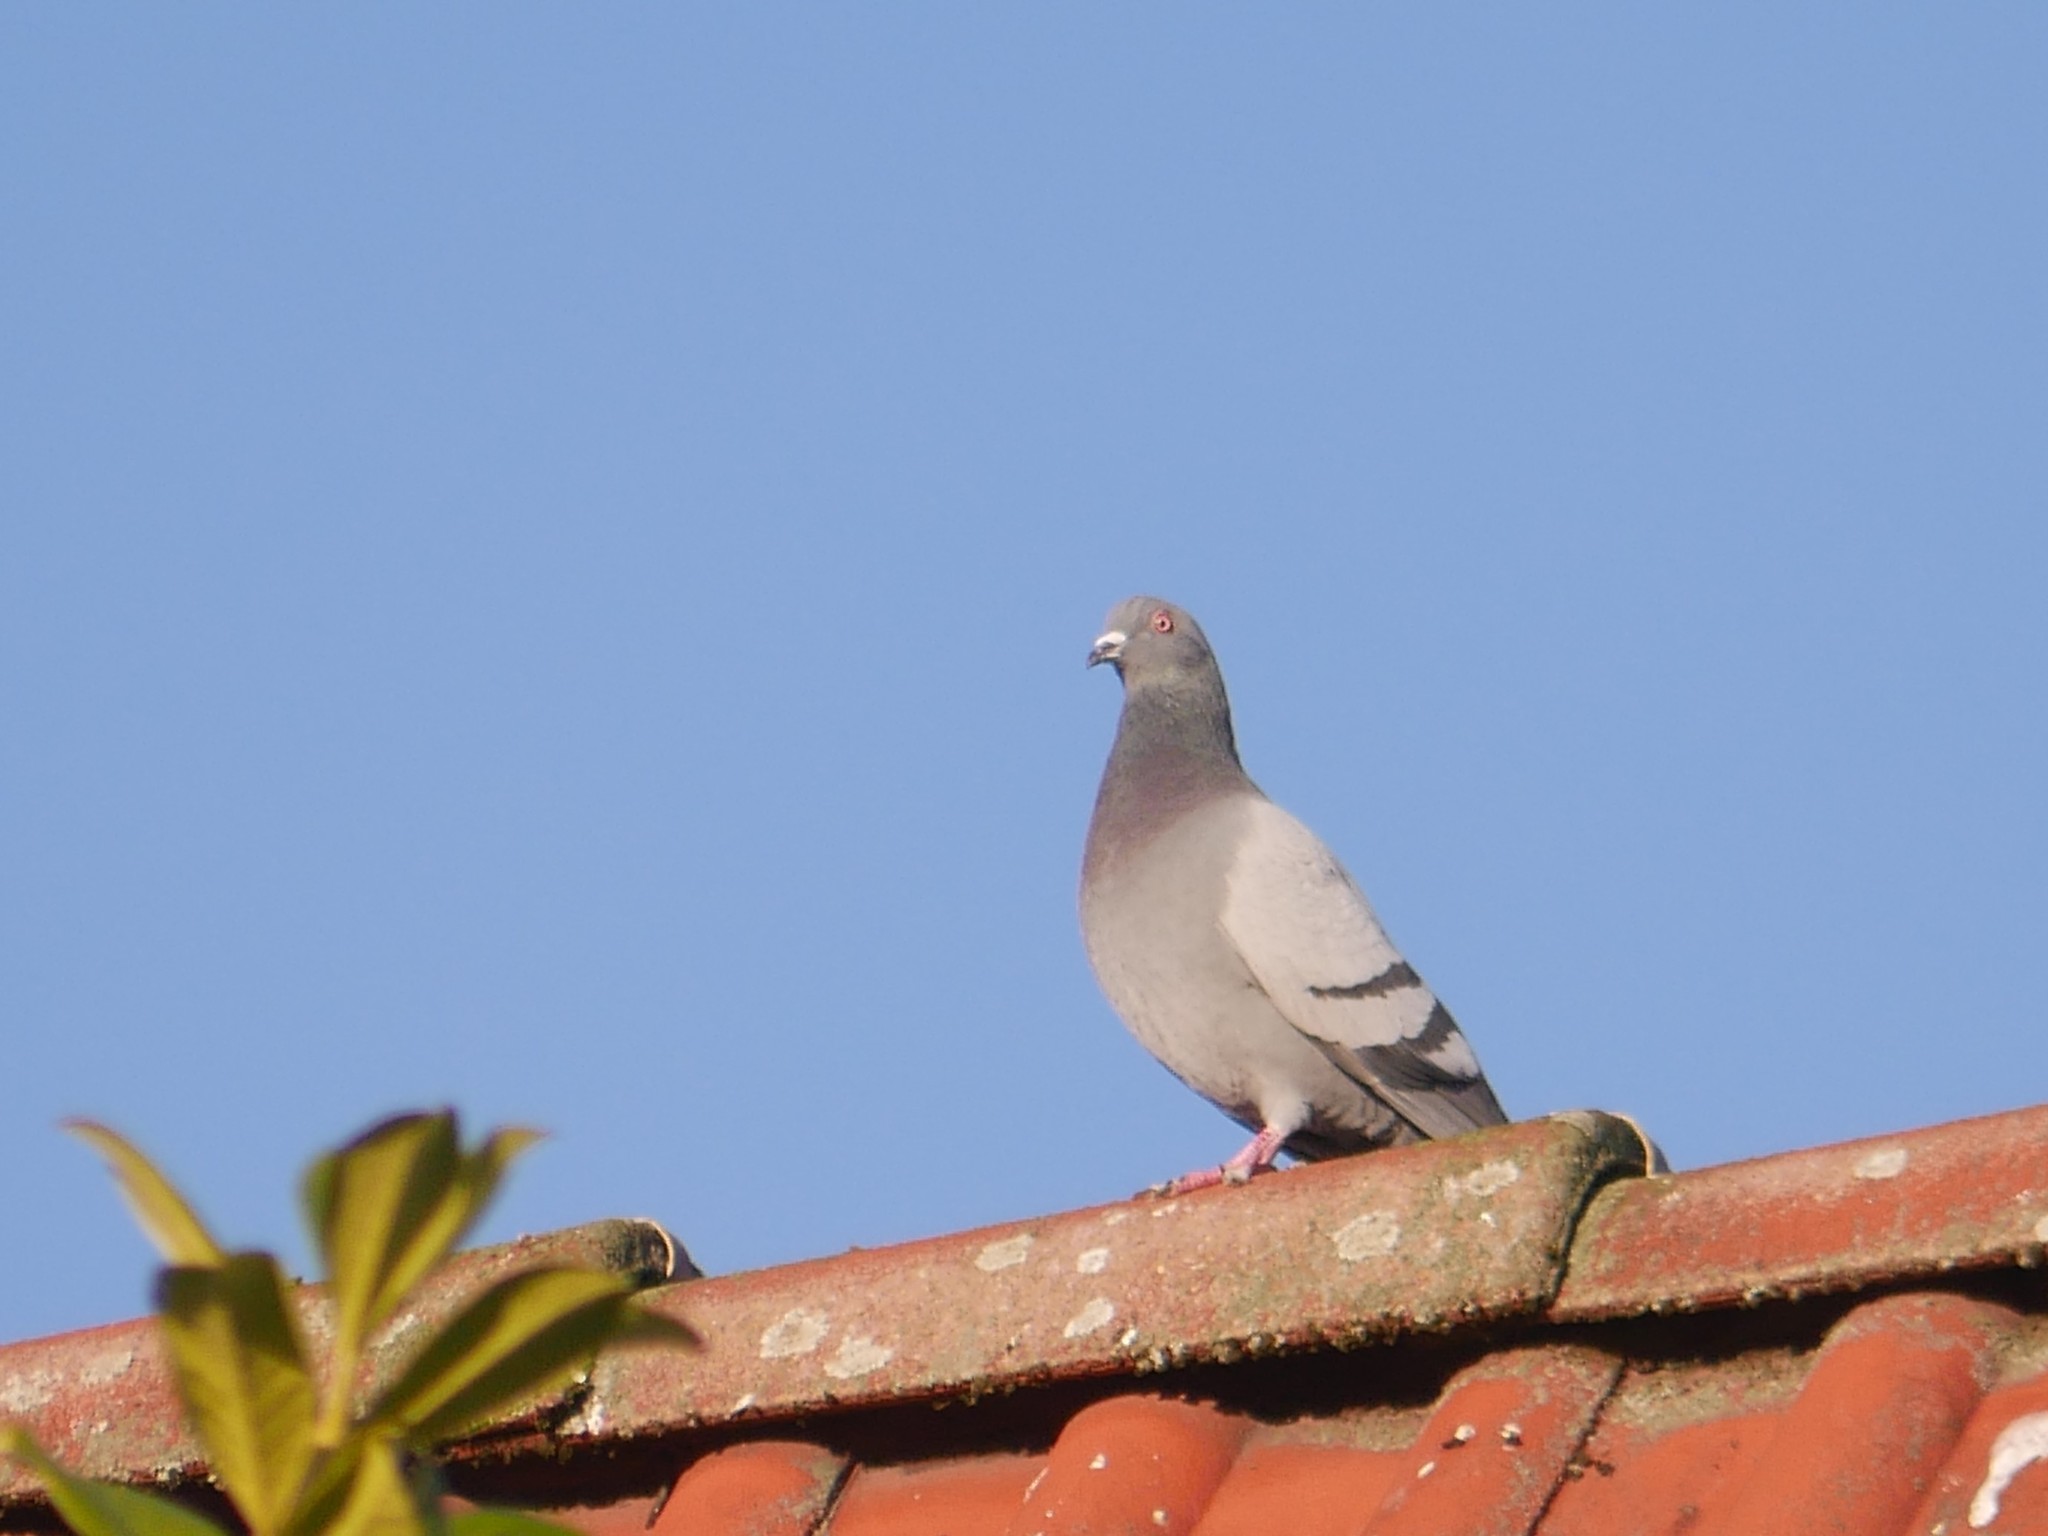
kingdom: Animalia
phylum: Chordata
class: Aves
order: Columbiformes
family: Columbidae
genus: Columba
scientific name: Columba livia
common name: Rock pigeon
